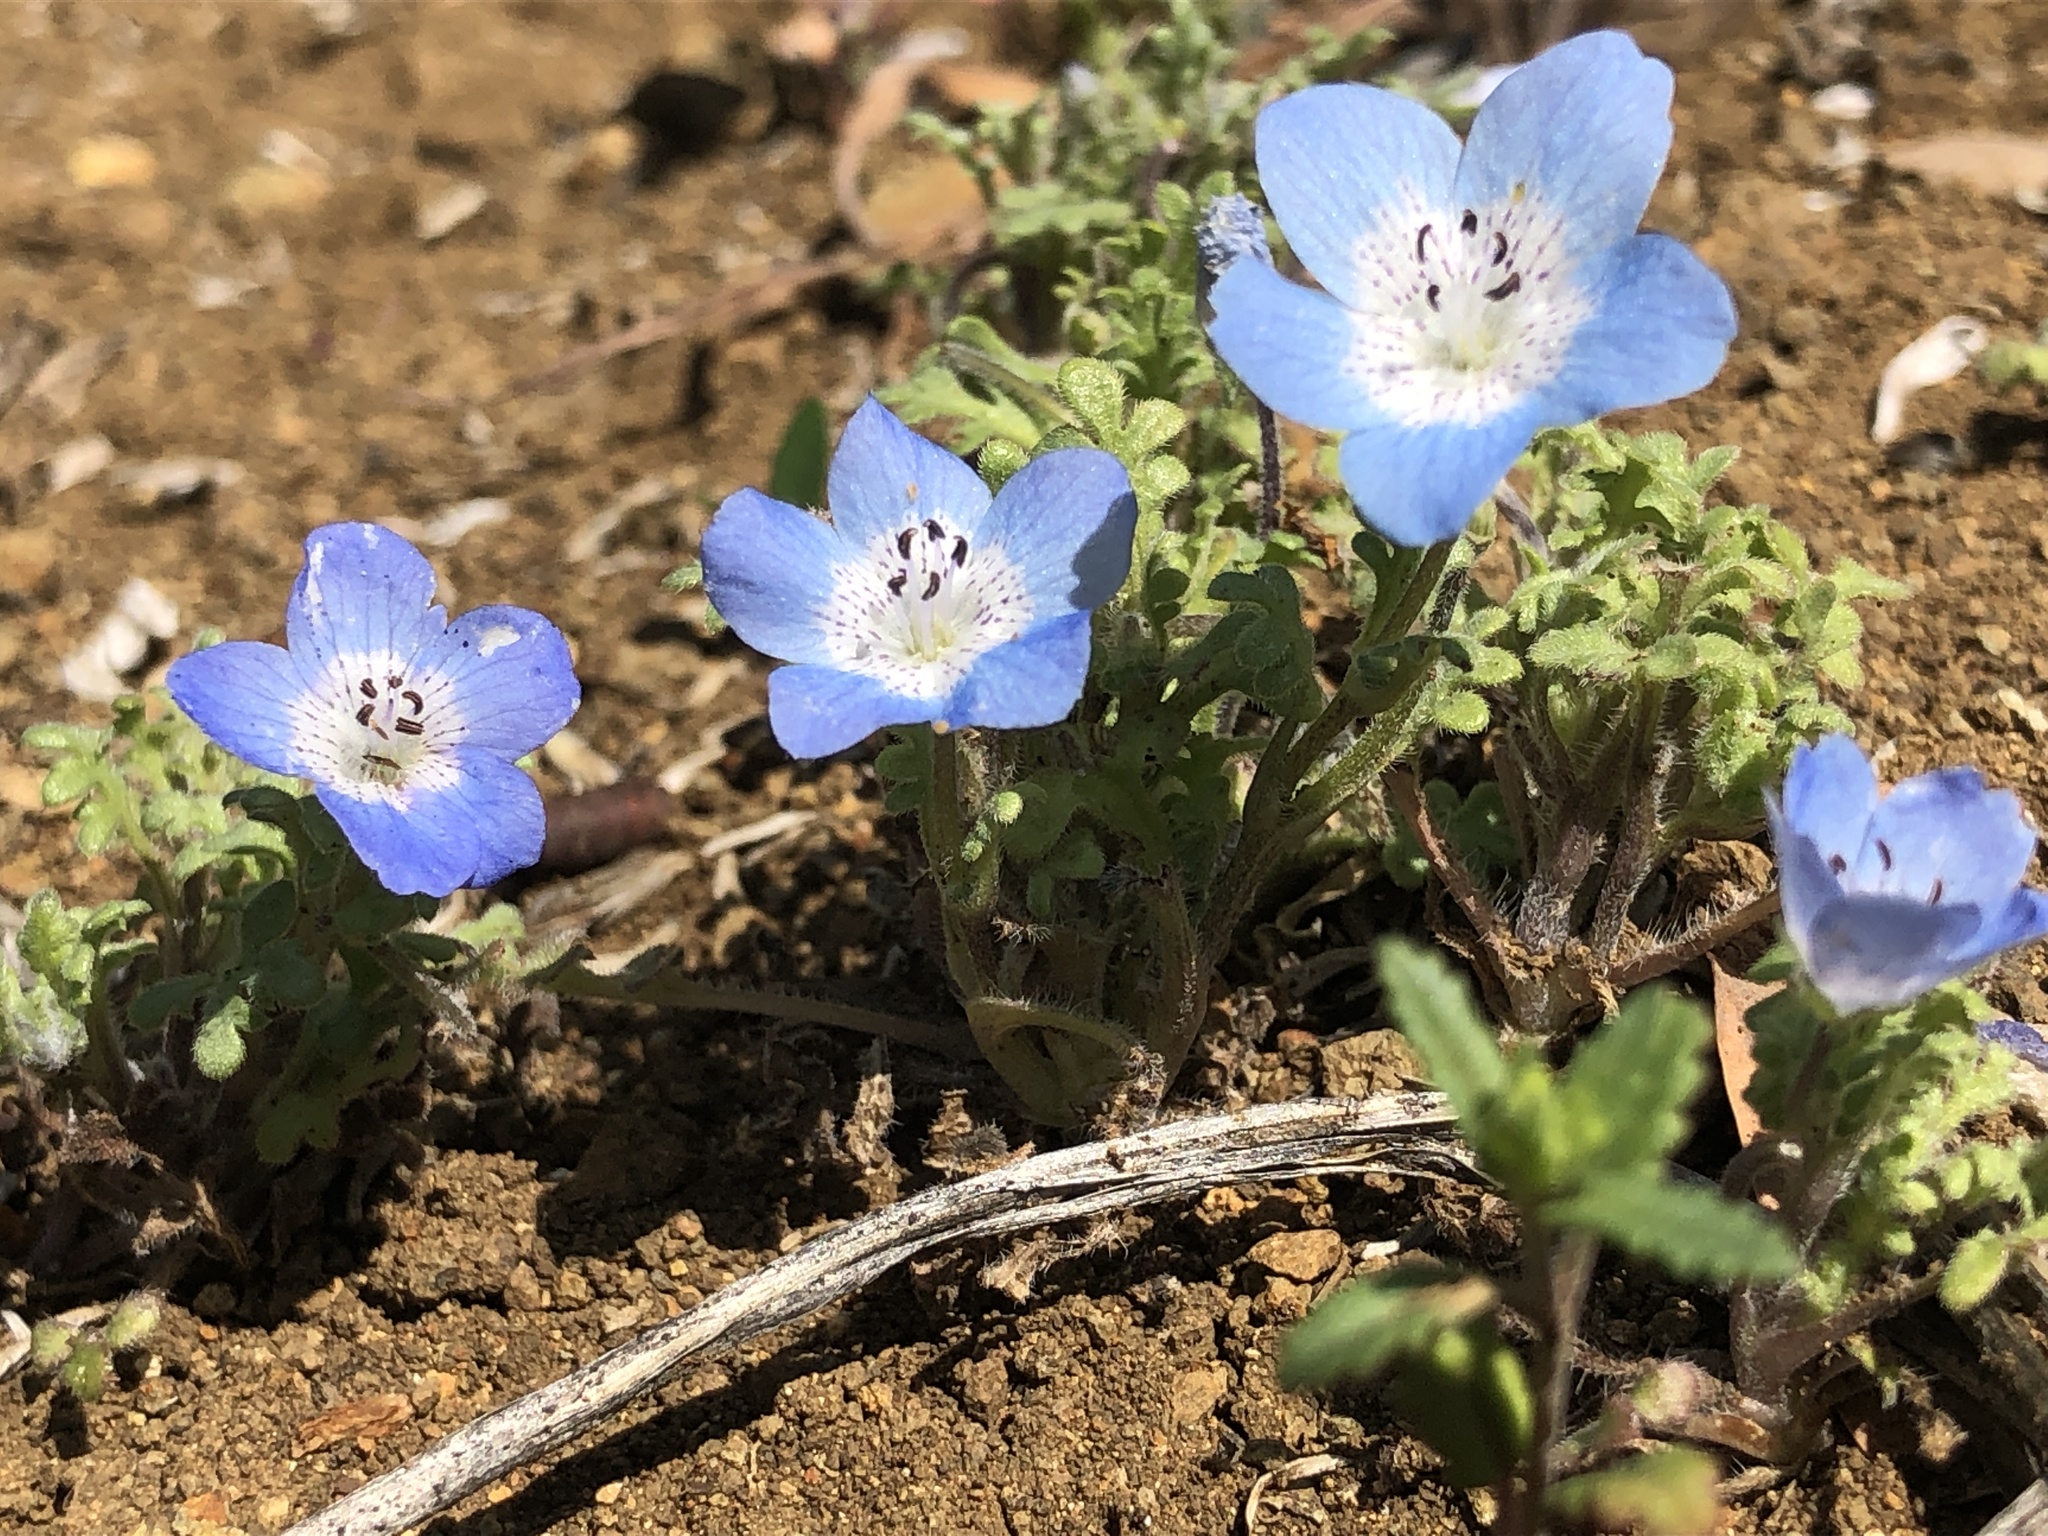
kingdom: Plantae
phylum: Tracheophyta
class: Magnoliopsida
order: Boraginales
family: Hydrophyllaceae
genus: Nemophila
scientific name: Nemophila menziesii
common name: Baby's-blue-eyes
